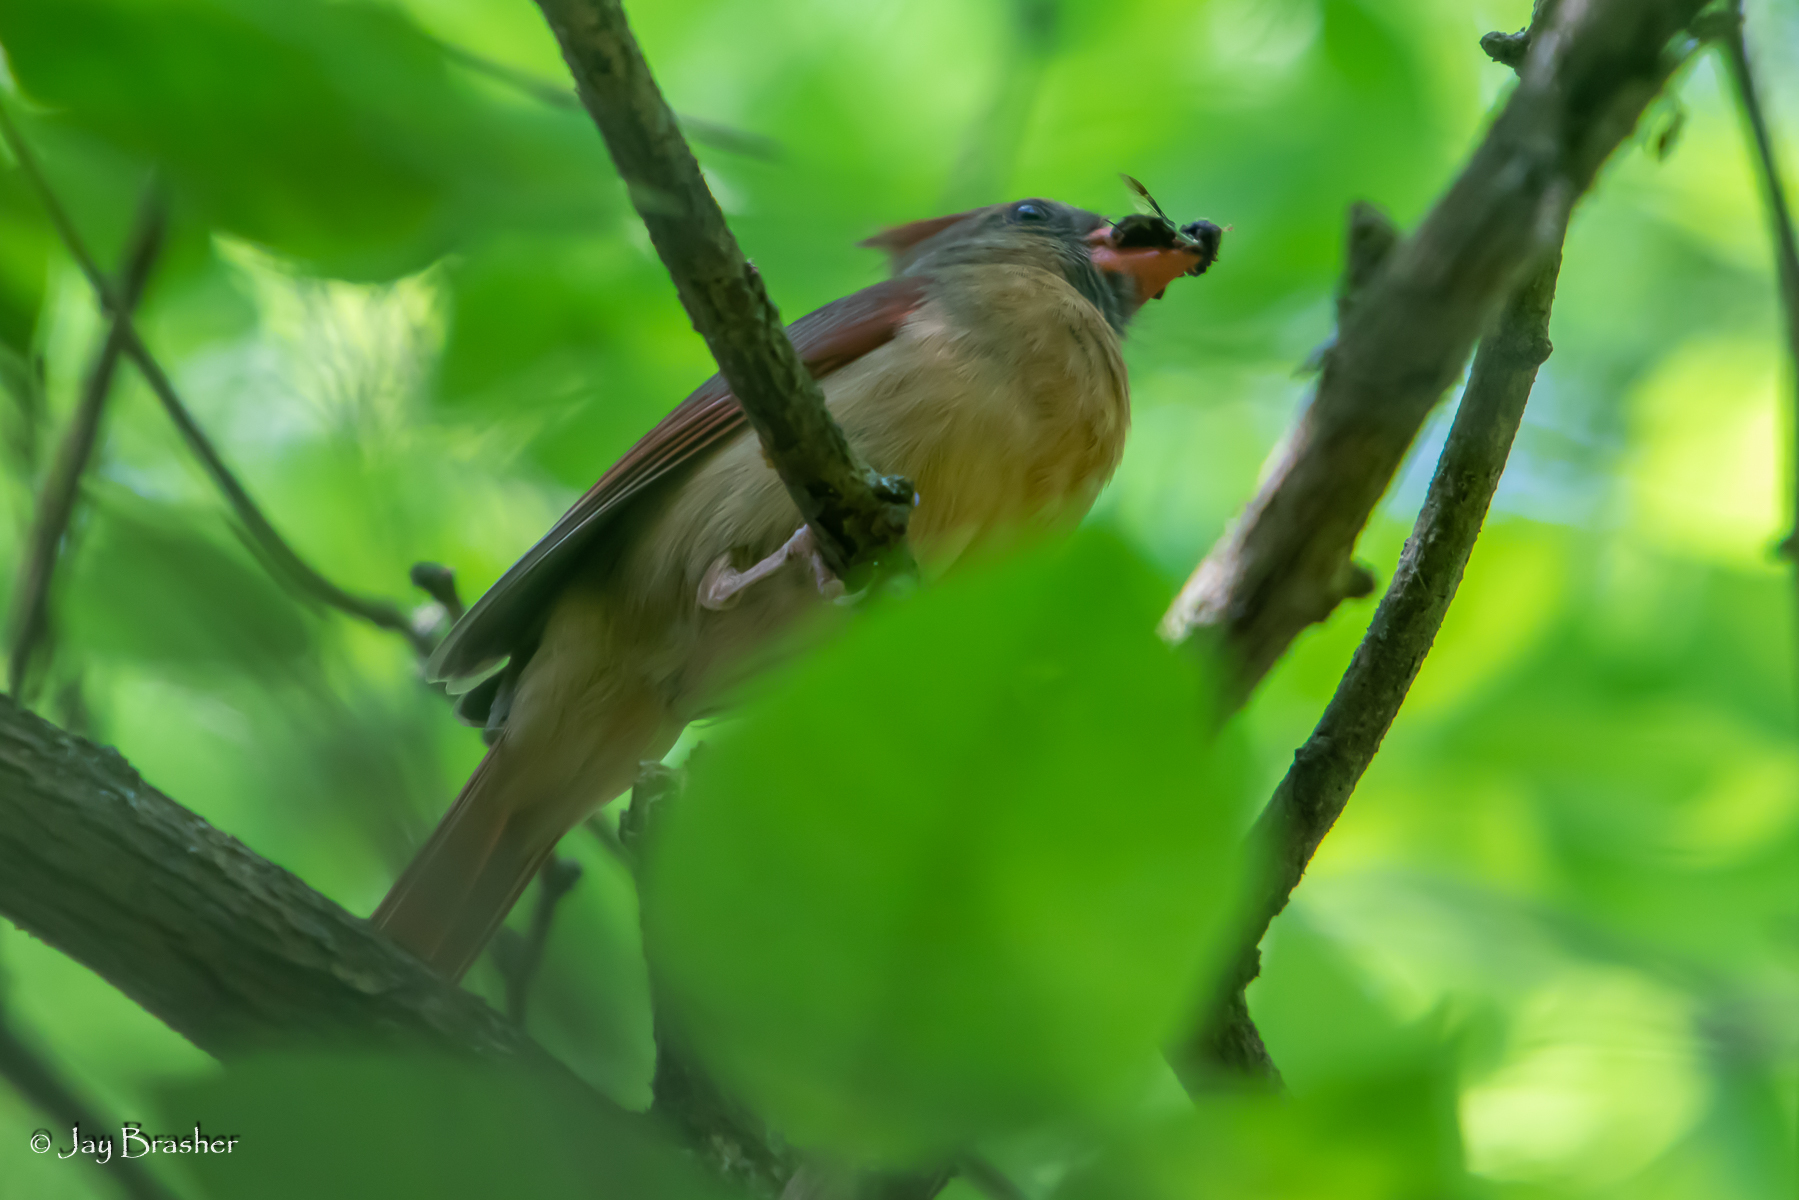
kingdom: Animalia
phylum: Chordata
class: Aves
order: Passeriformes
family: Cardinalidae
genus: Cardinalis
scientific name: Cardinalis cardinalis
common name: Northern cardinal
